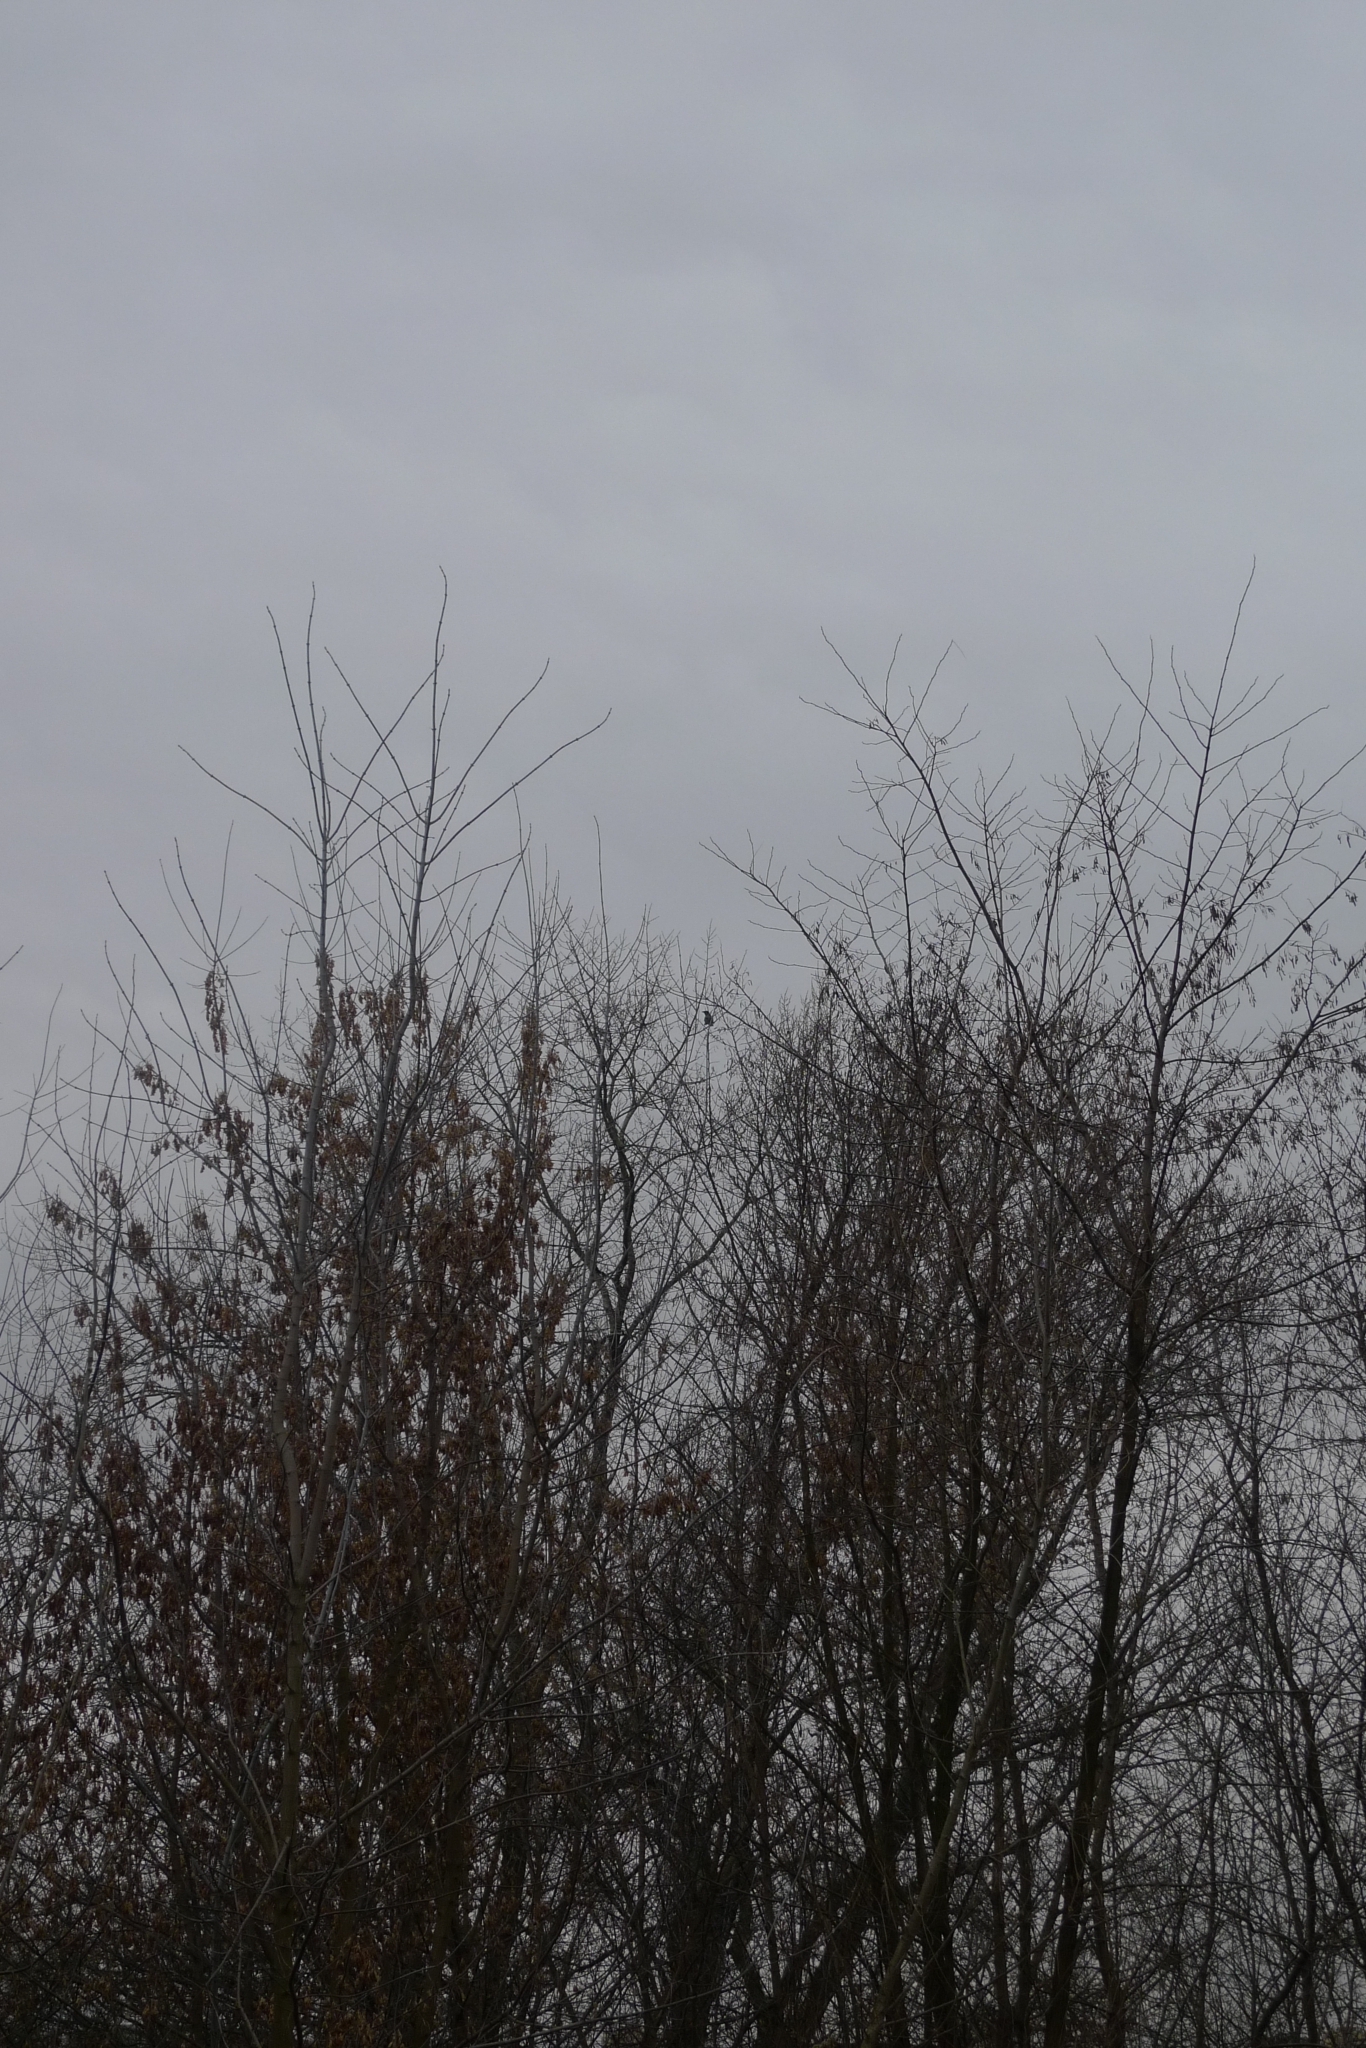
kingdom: Animalia
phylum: Chordata
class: Aves
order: Piciformes
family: Picidae
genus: Picus
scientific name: Picus viridis
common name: European green woodpecker
